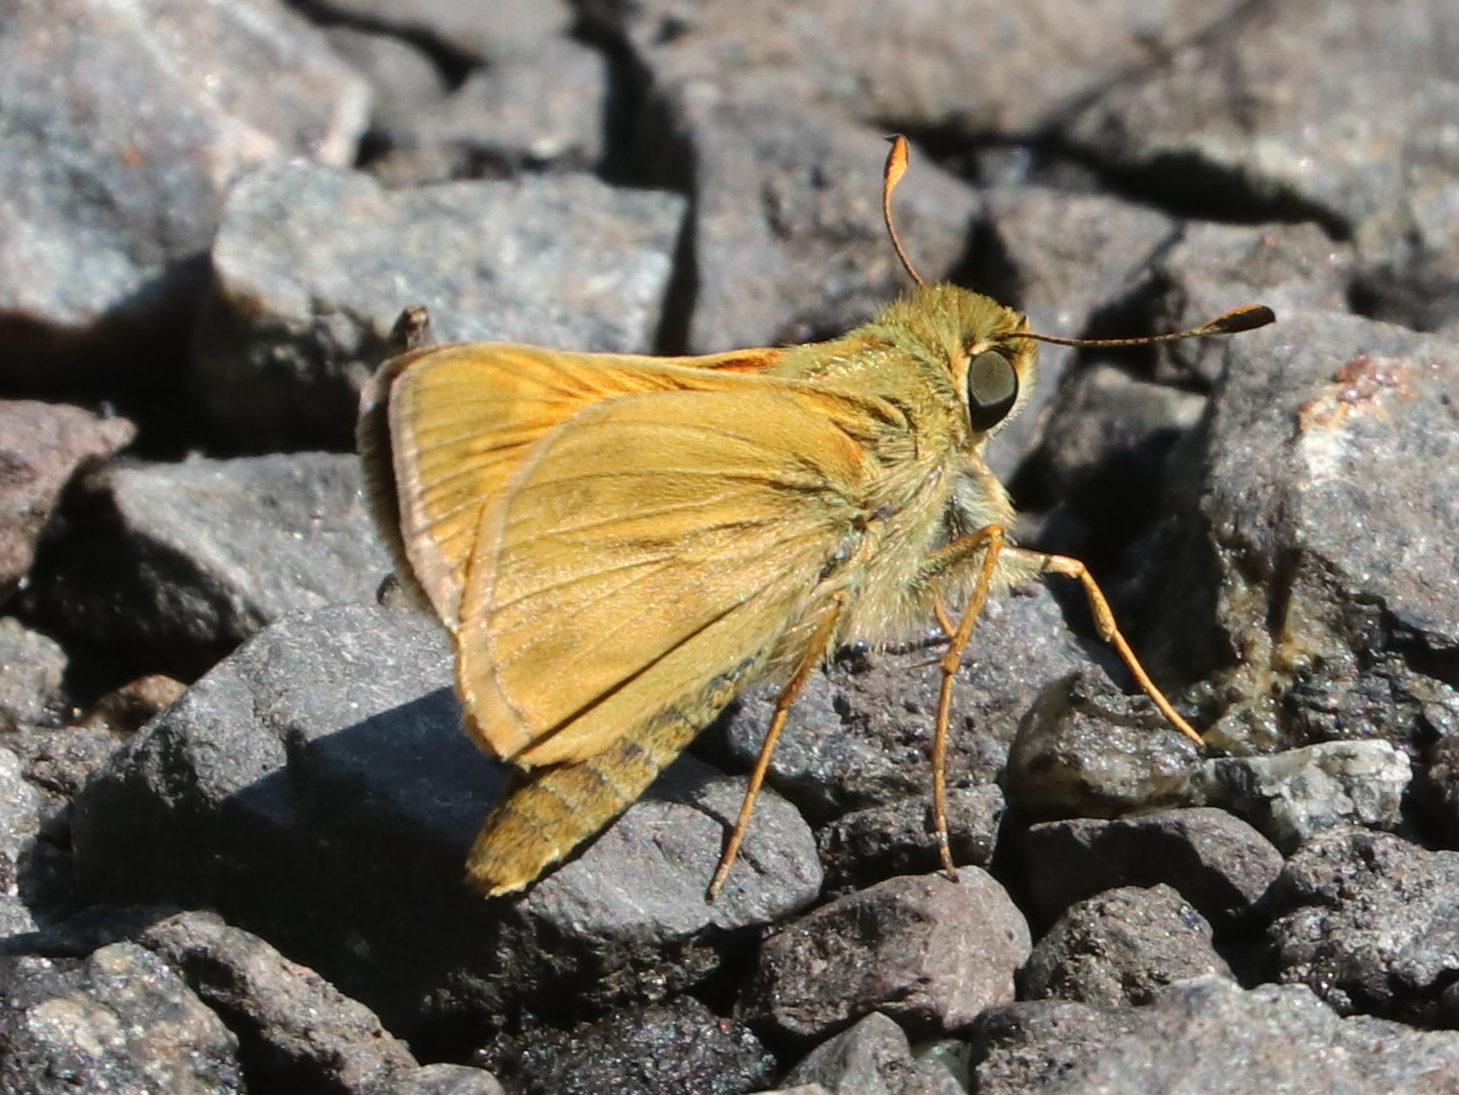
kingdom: Animalia
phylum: Arthropoda
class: Insecta
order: Lepidoptera
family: Hesperiidae
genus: Atalopedes
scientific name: Atalopedes
